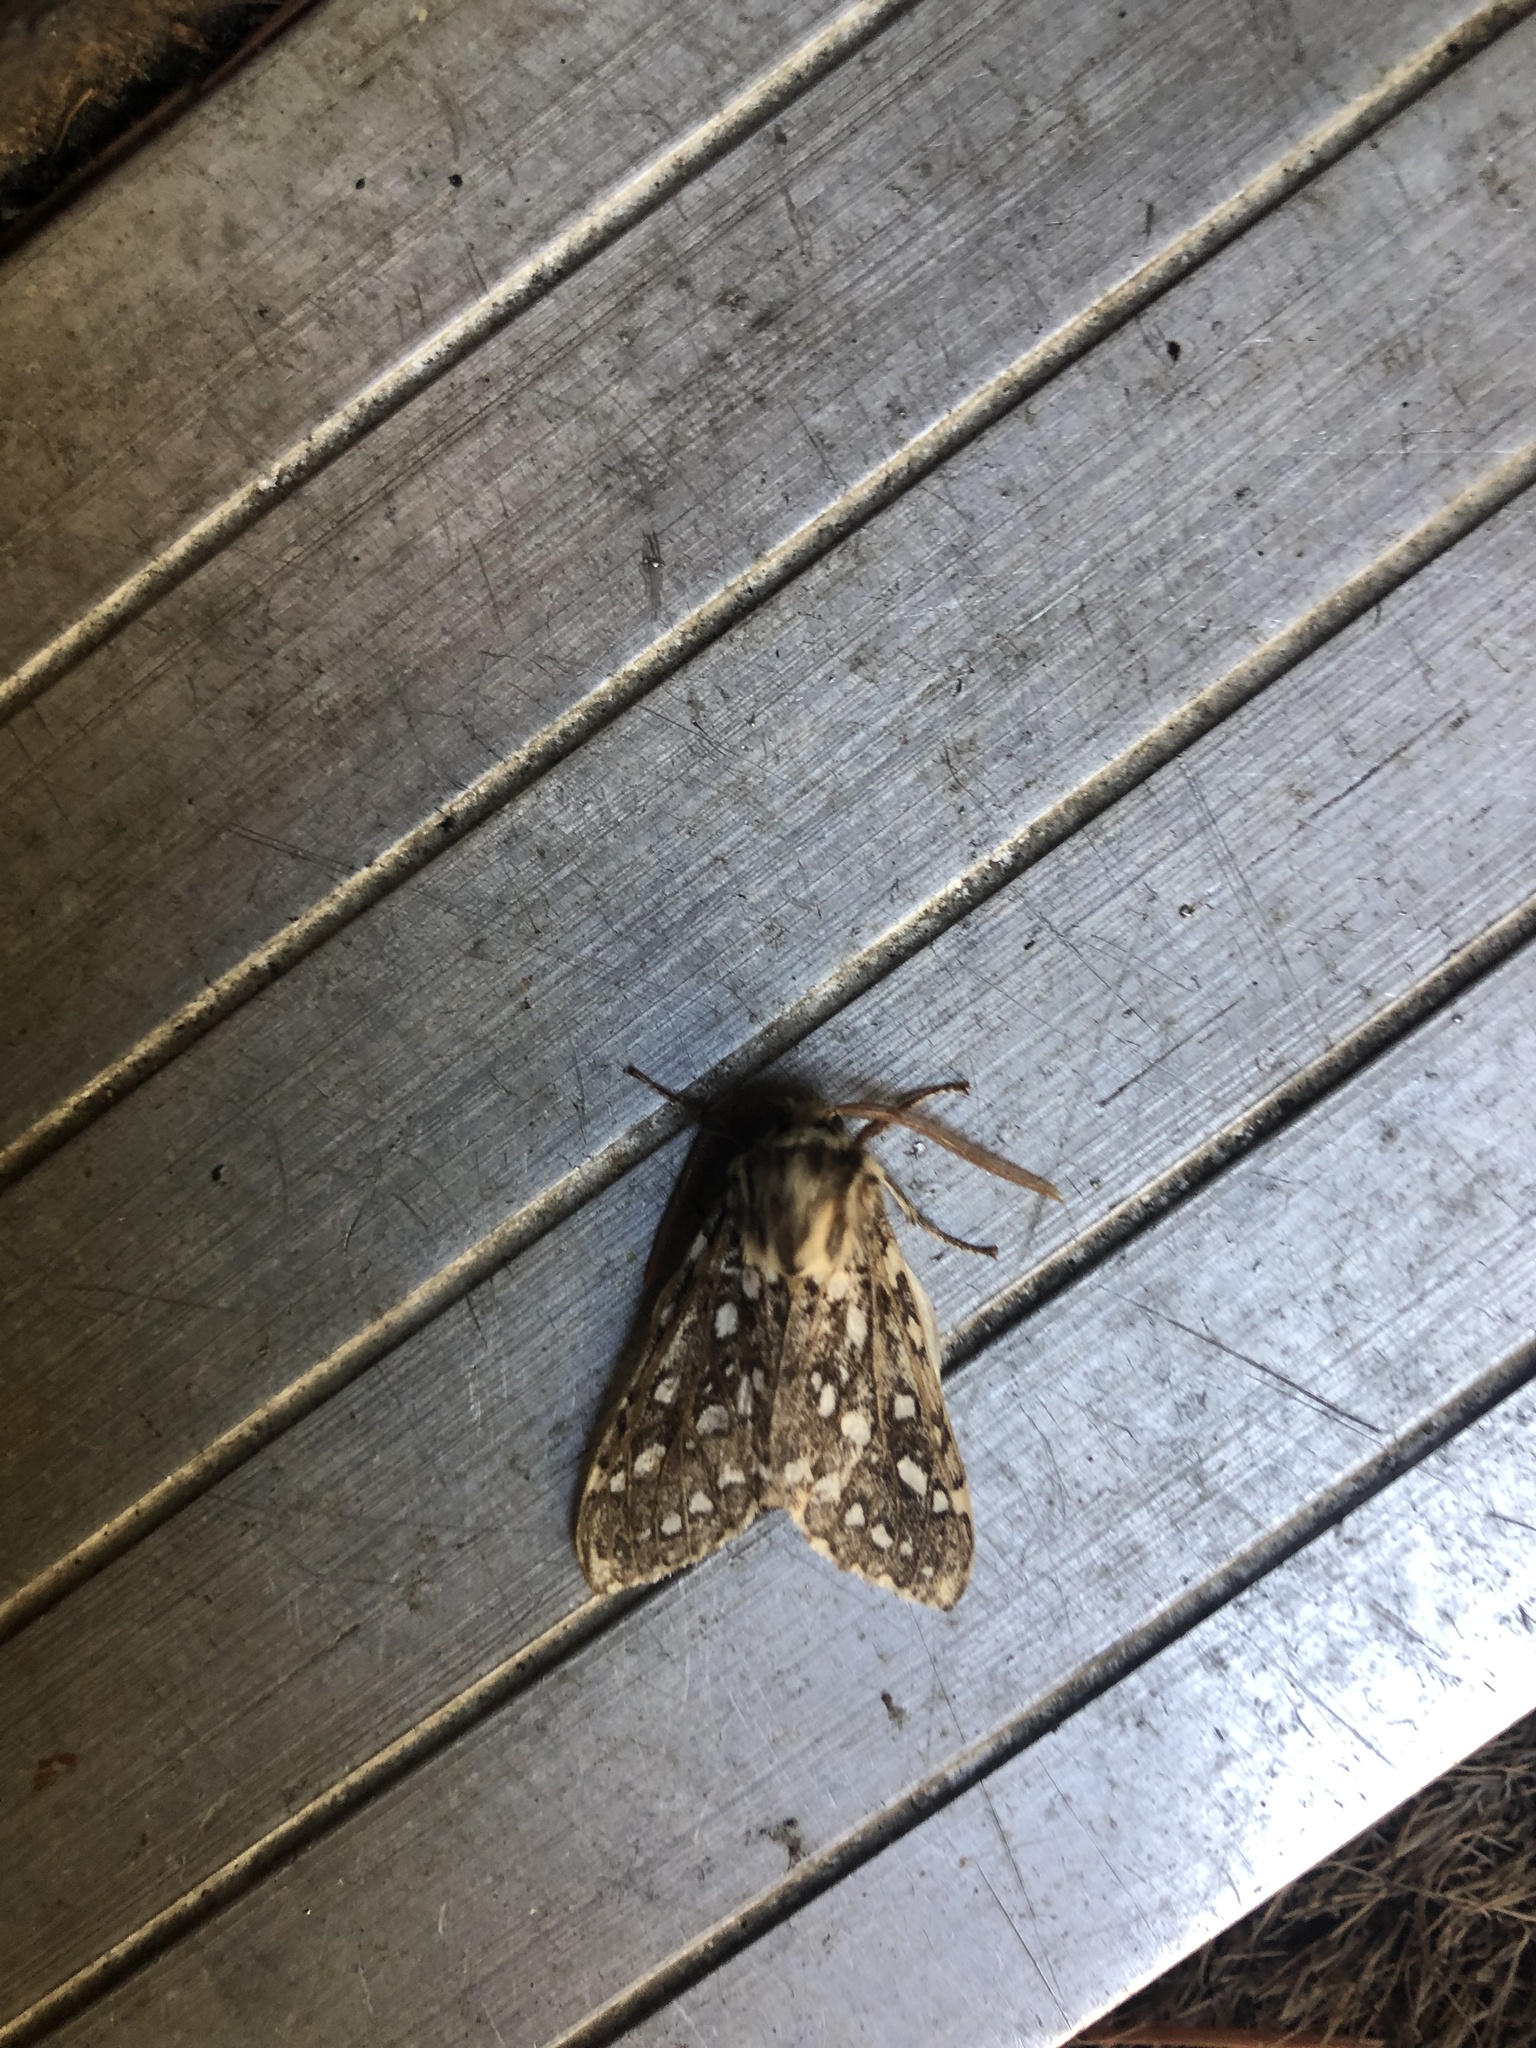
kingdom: Animalia
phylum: Arthropoda
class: Insecta
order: Lepidoptera
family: Erebidae
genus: Lophocampa
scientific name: Lophocampa argentata
